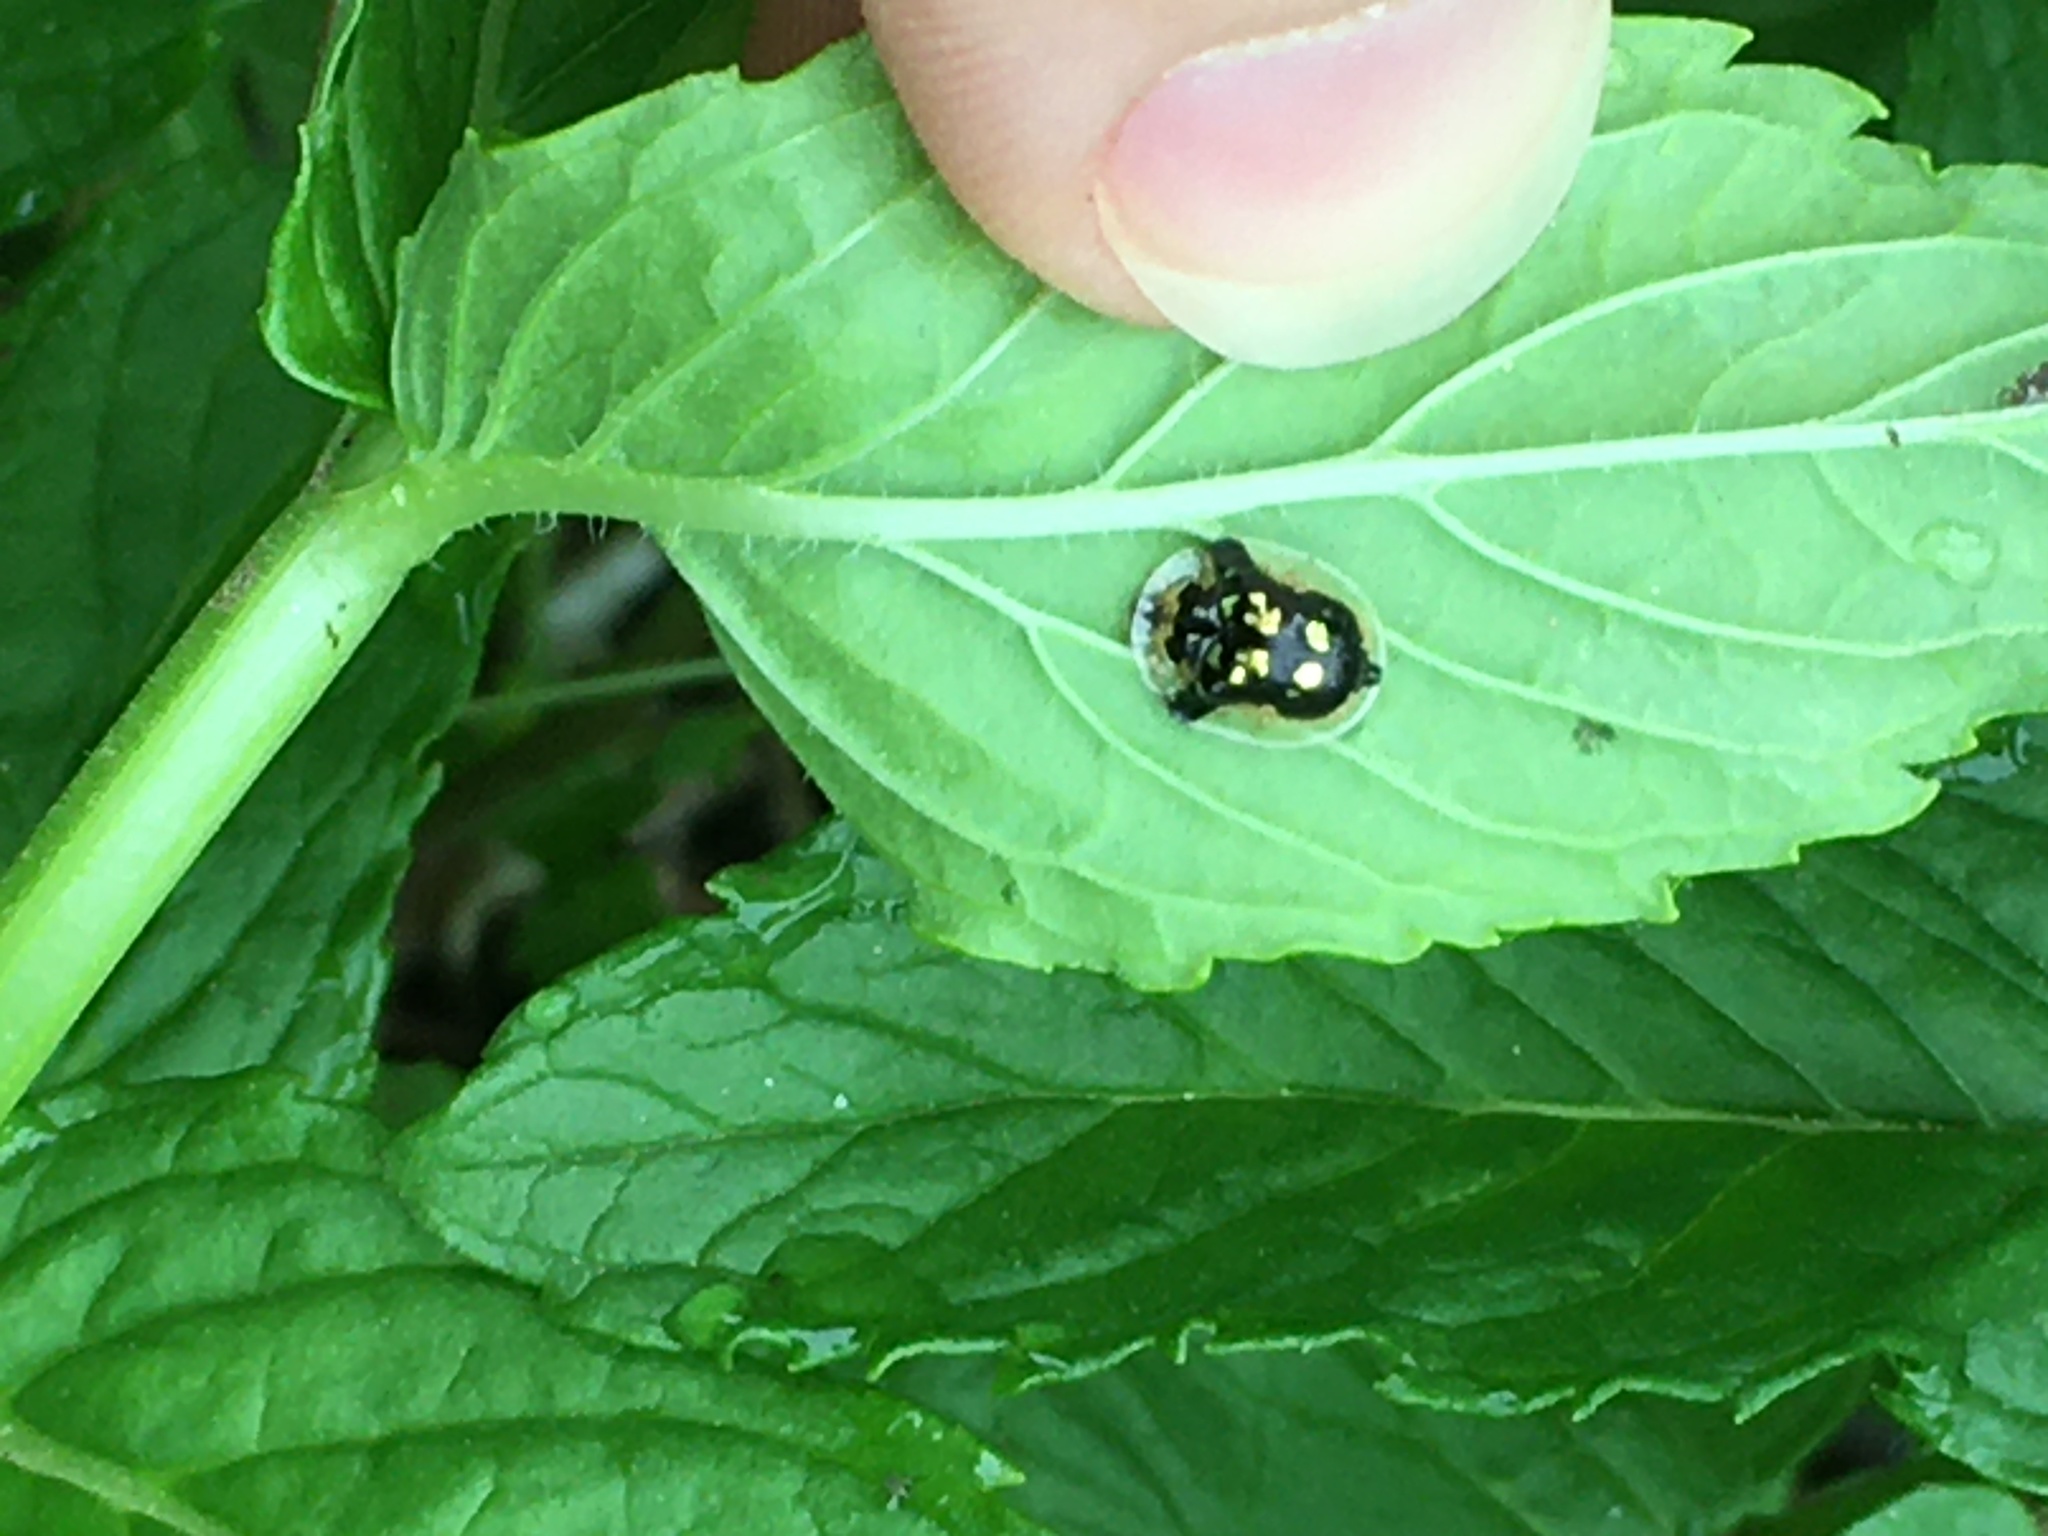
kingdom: Animalia
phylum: Arthropoda
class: Insecta
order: Coleoptera
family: Chrysomelidae
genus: Deloyala
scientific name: Deloyala guttata
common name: Mottled tortoise beetle
